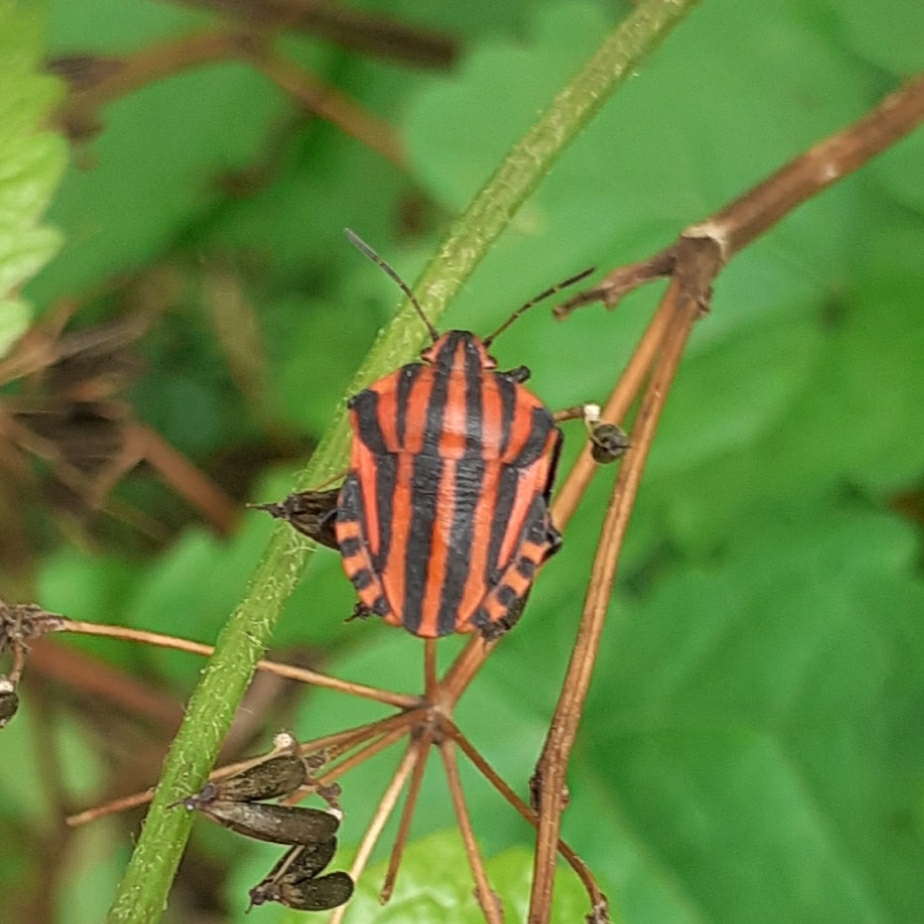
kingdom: Animalia
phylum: Arthropoda
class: Insecta
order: Hemiptera
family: Pentatomidae
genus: Graphosoma
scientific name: Graphosoma italicum
